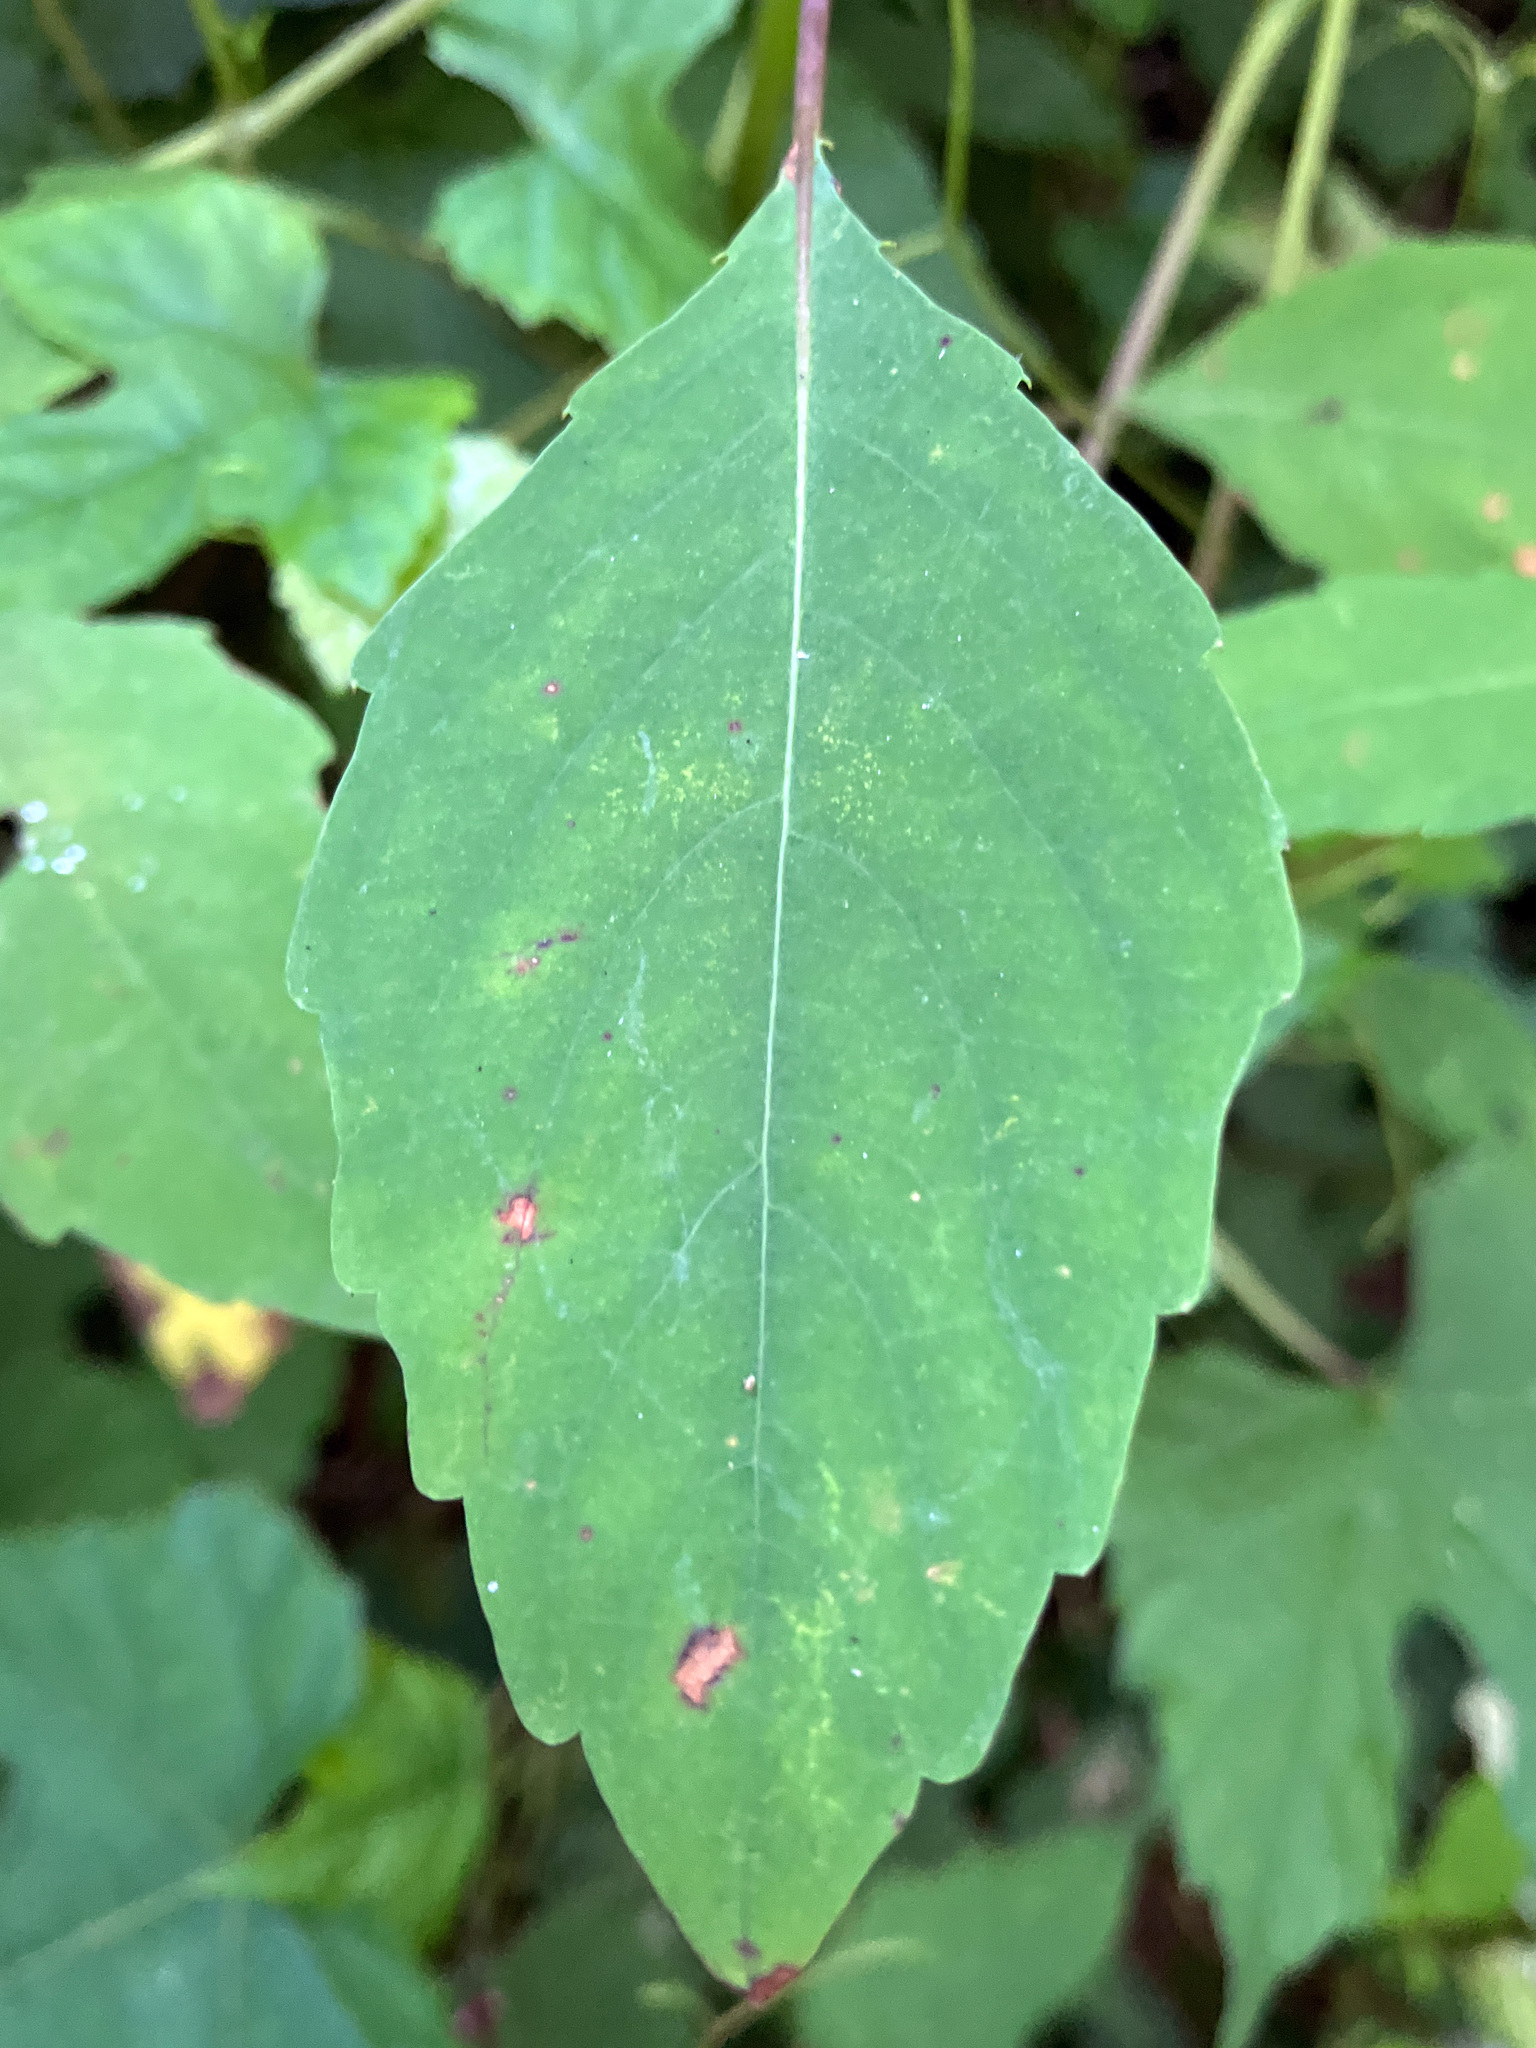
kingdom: Plantae
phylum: Tracheophyta
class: Magnoliopsida
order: Ericales
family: Balsaminaceae
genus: Impatiens
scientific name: Impatiens capensis
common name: Orange balsam
